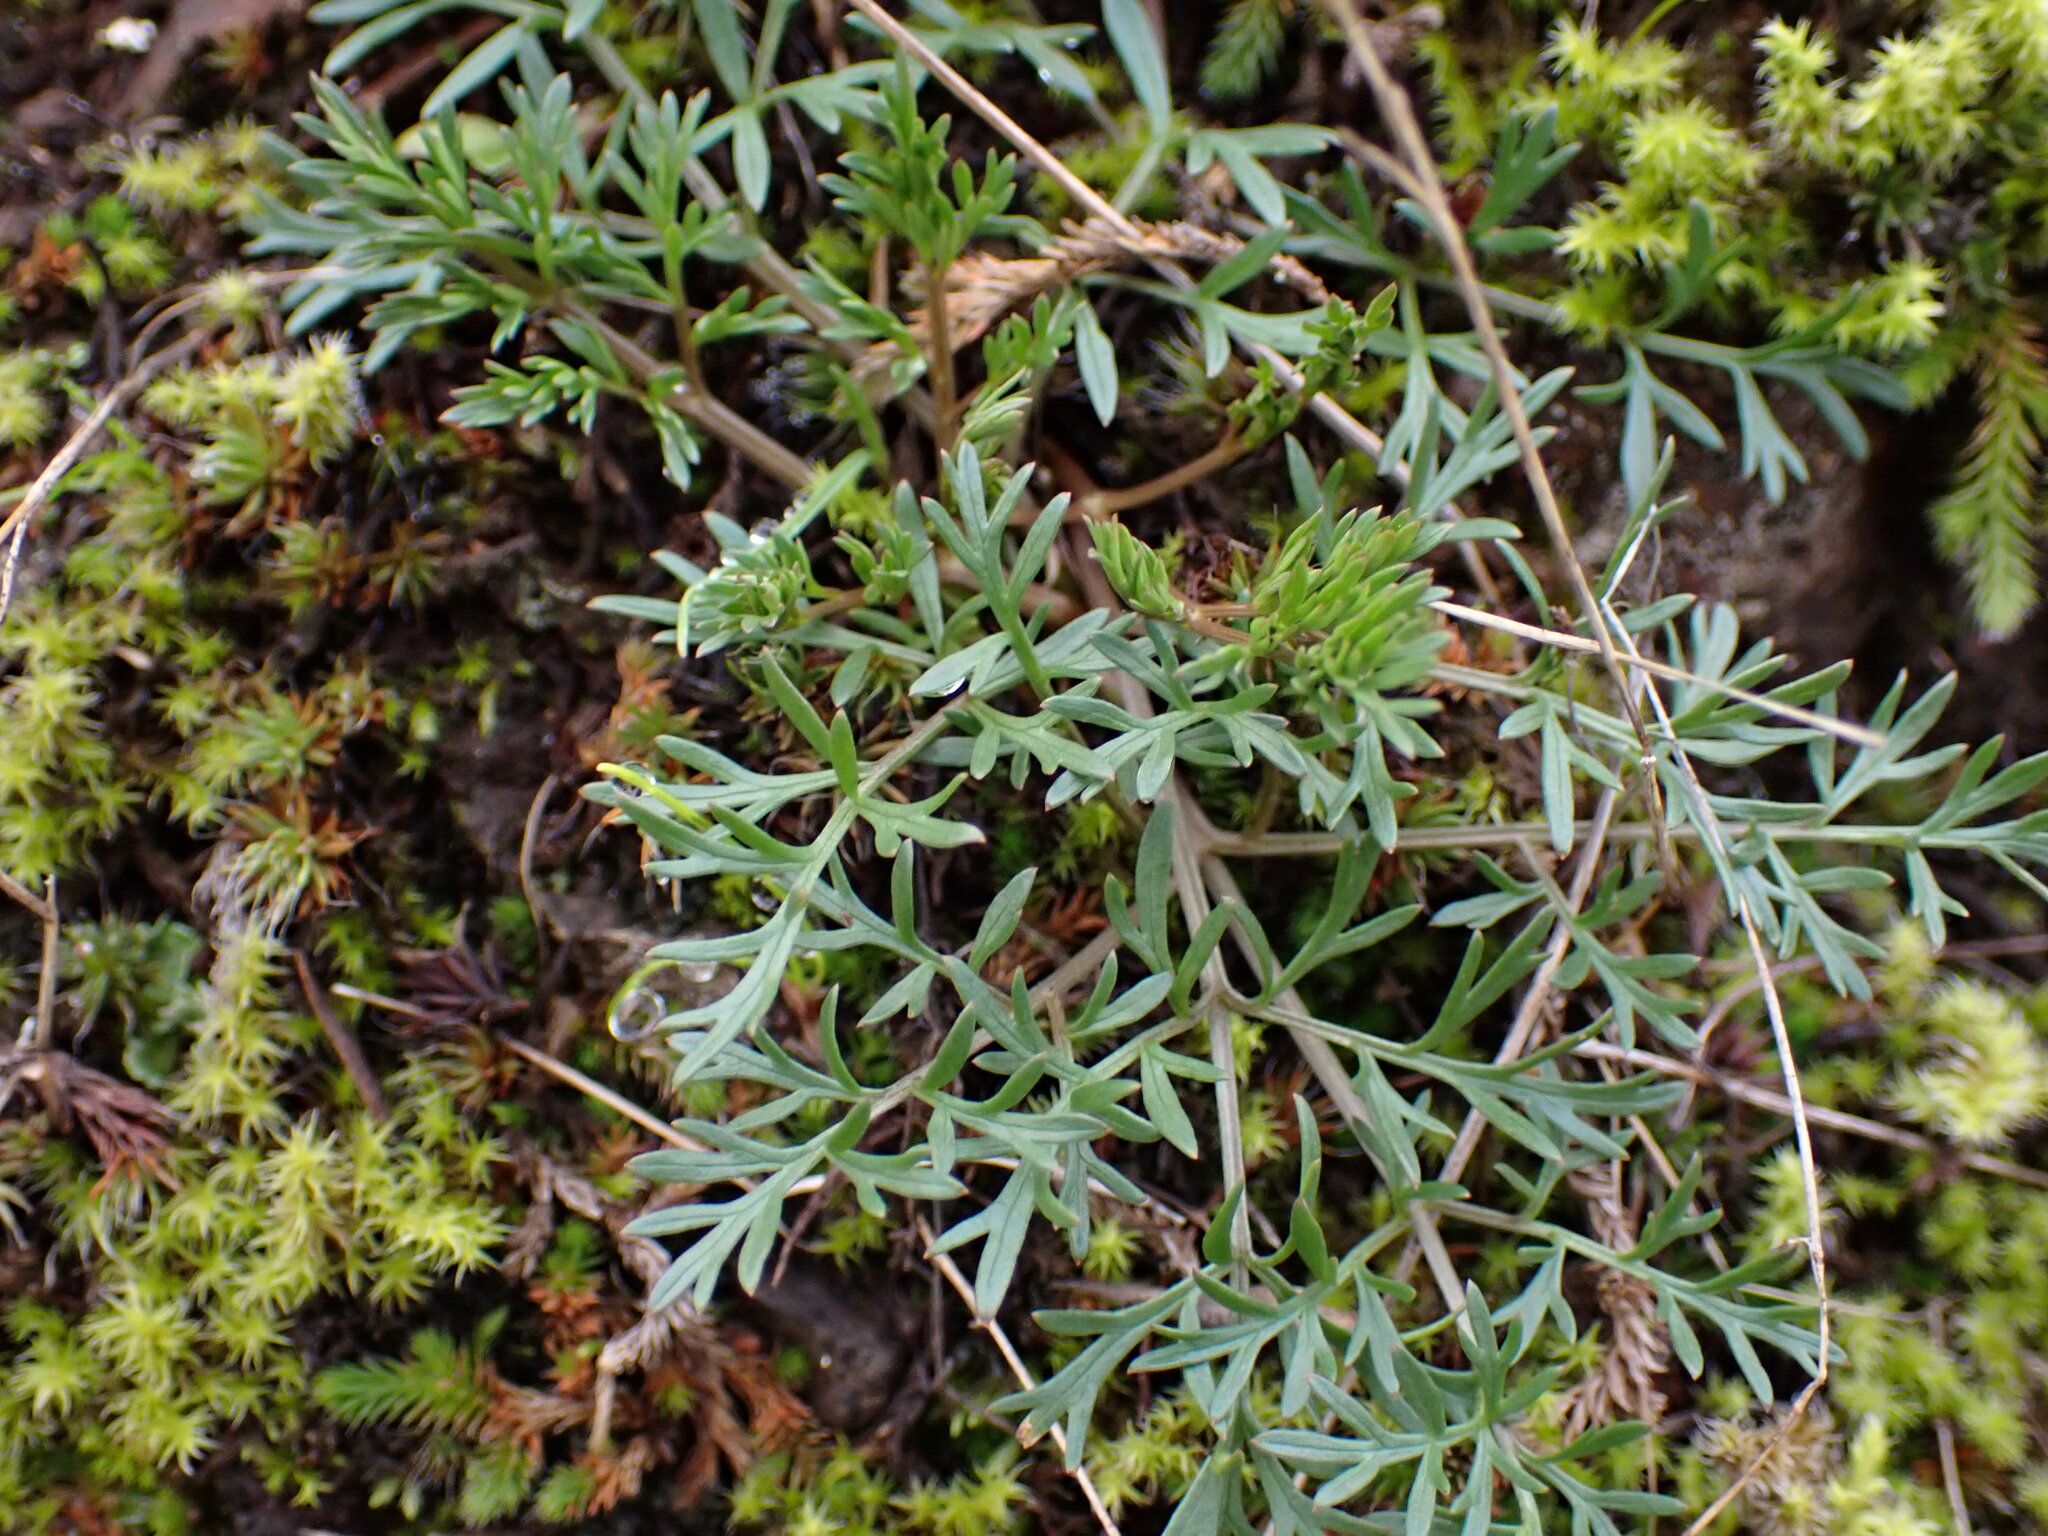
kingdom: Plantae
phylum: Tracheophyta
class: Magnoliopsida
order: Apiales
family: Apiaceae
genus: Lomatium
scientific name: Lomatium utriculatum
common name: Fine-leaf desert-parsley
